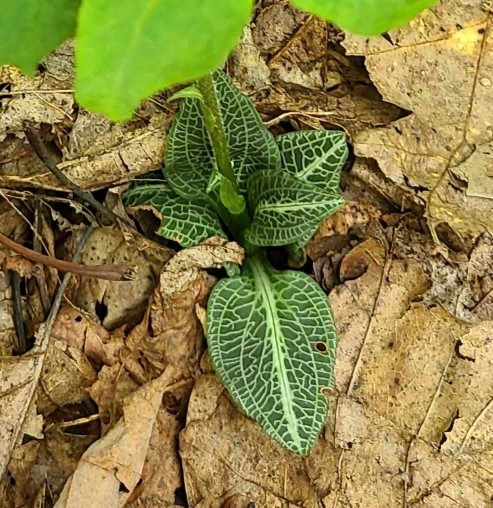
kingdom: Plantae
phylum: Tracheophyta
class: Liliopsida
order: Asparagales
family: Orchidaceae
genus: Goodyera
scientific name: Goodyera pubescens
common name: Downy rattlesnake-plantain
